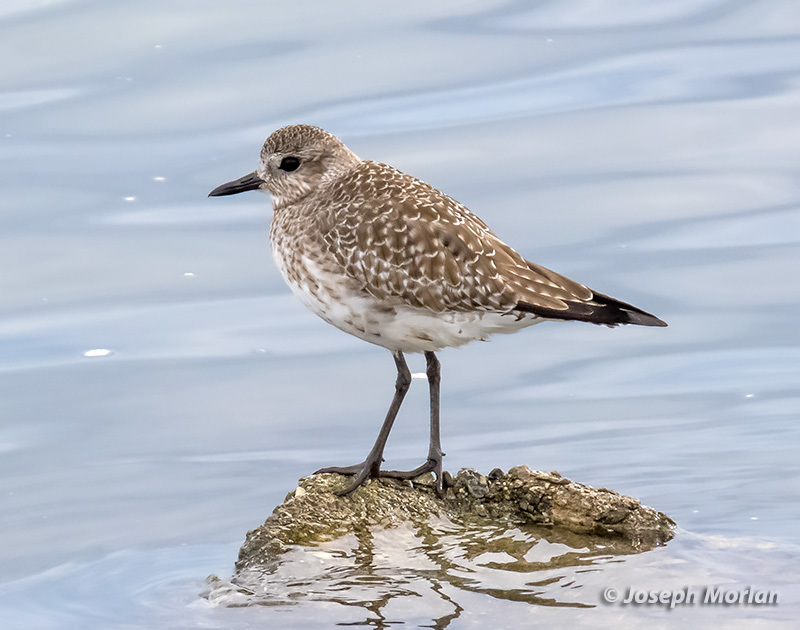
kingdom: Animalia
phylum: Chordata
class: Aves
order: Charadriiformes
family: Charadriidae
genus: Pluvialis
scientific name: Pluvialis squatarola
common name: Grey plover
